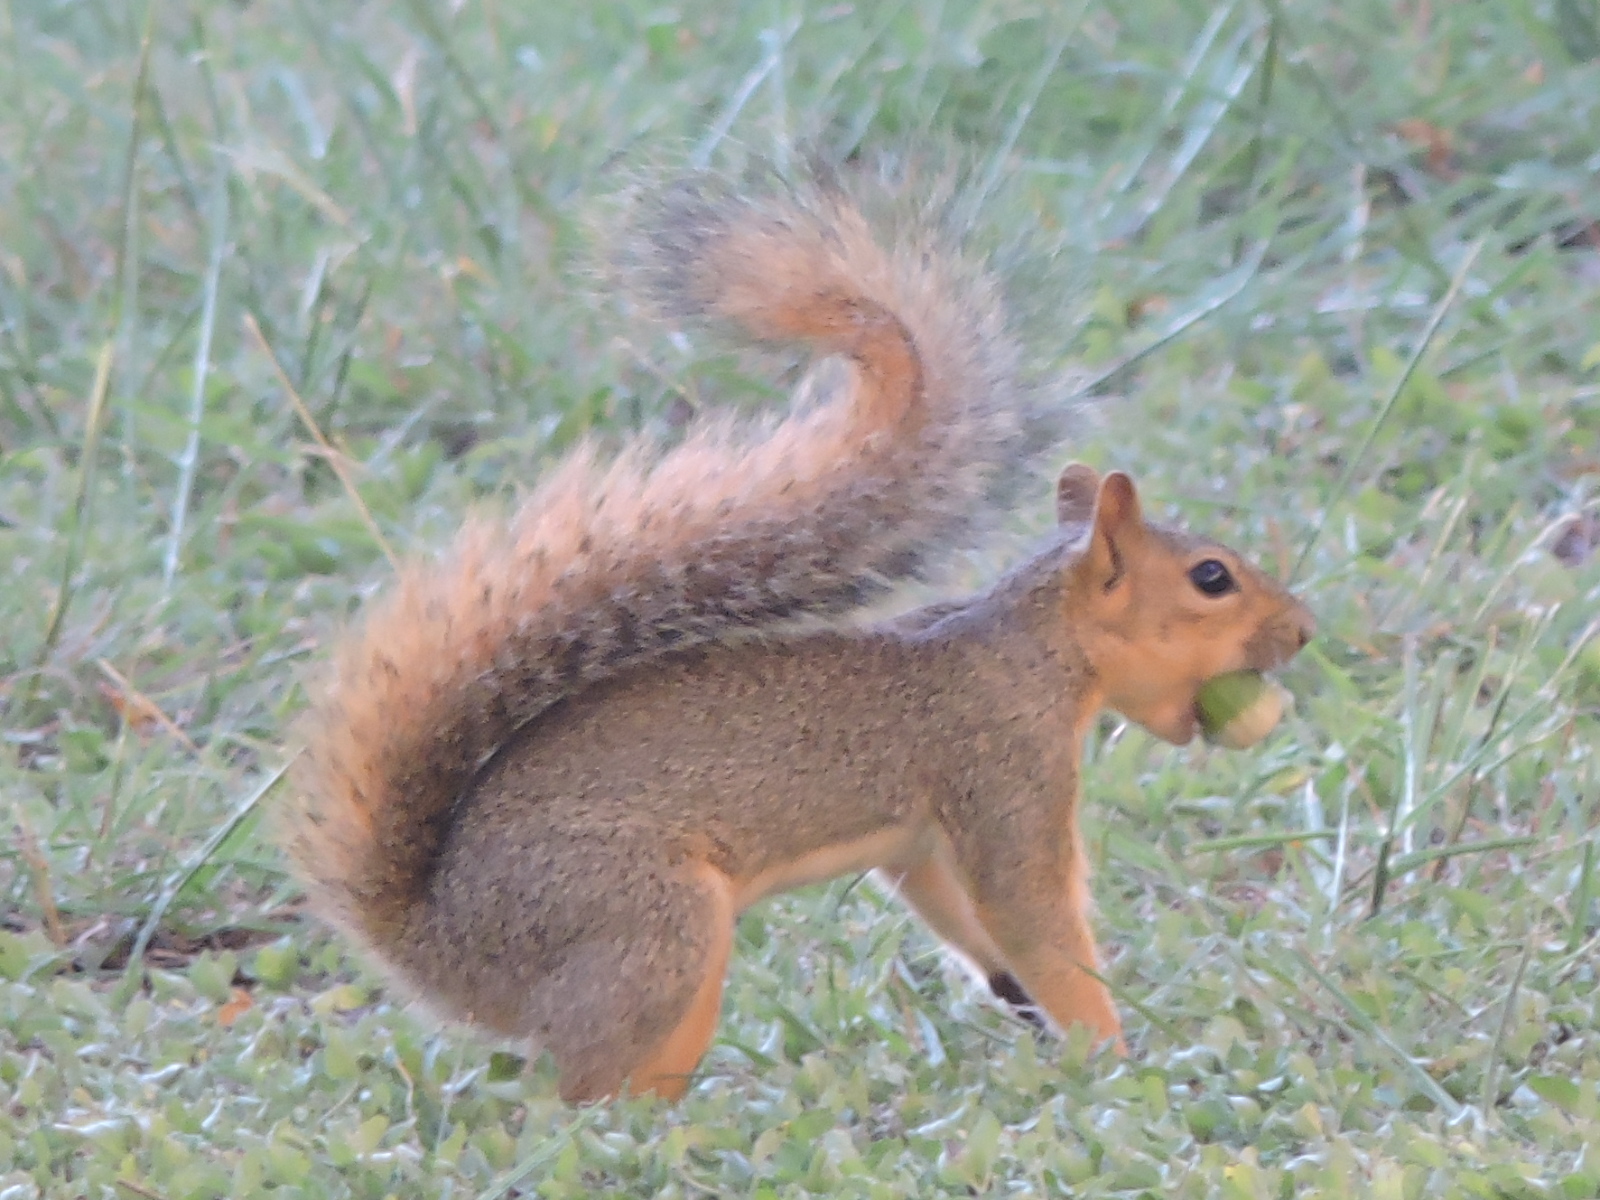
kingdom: Animalia
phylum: Chordata
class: Mammalia
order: Rodentia
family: Sciuridae
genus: Sciurus
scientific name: Sciurus niger
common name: Fox squirrel
